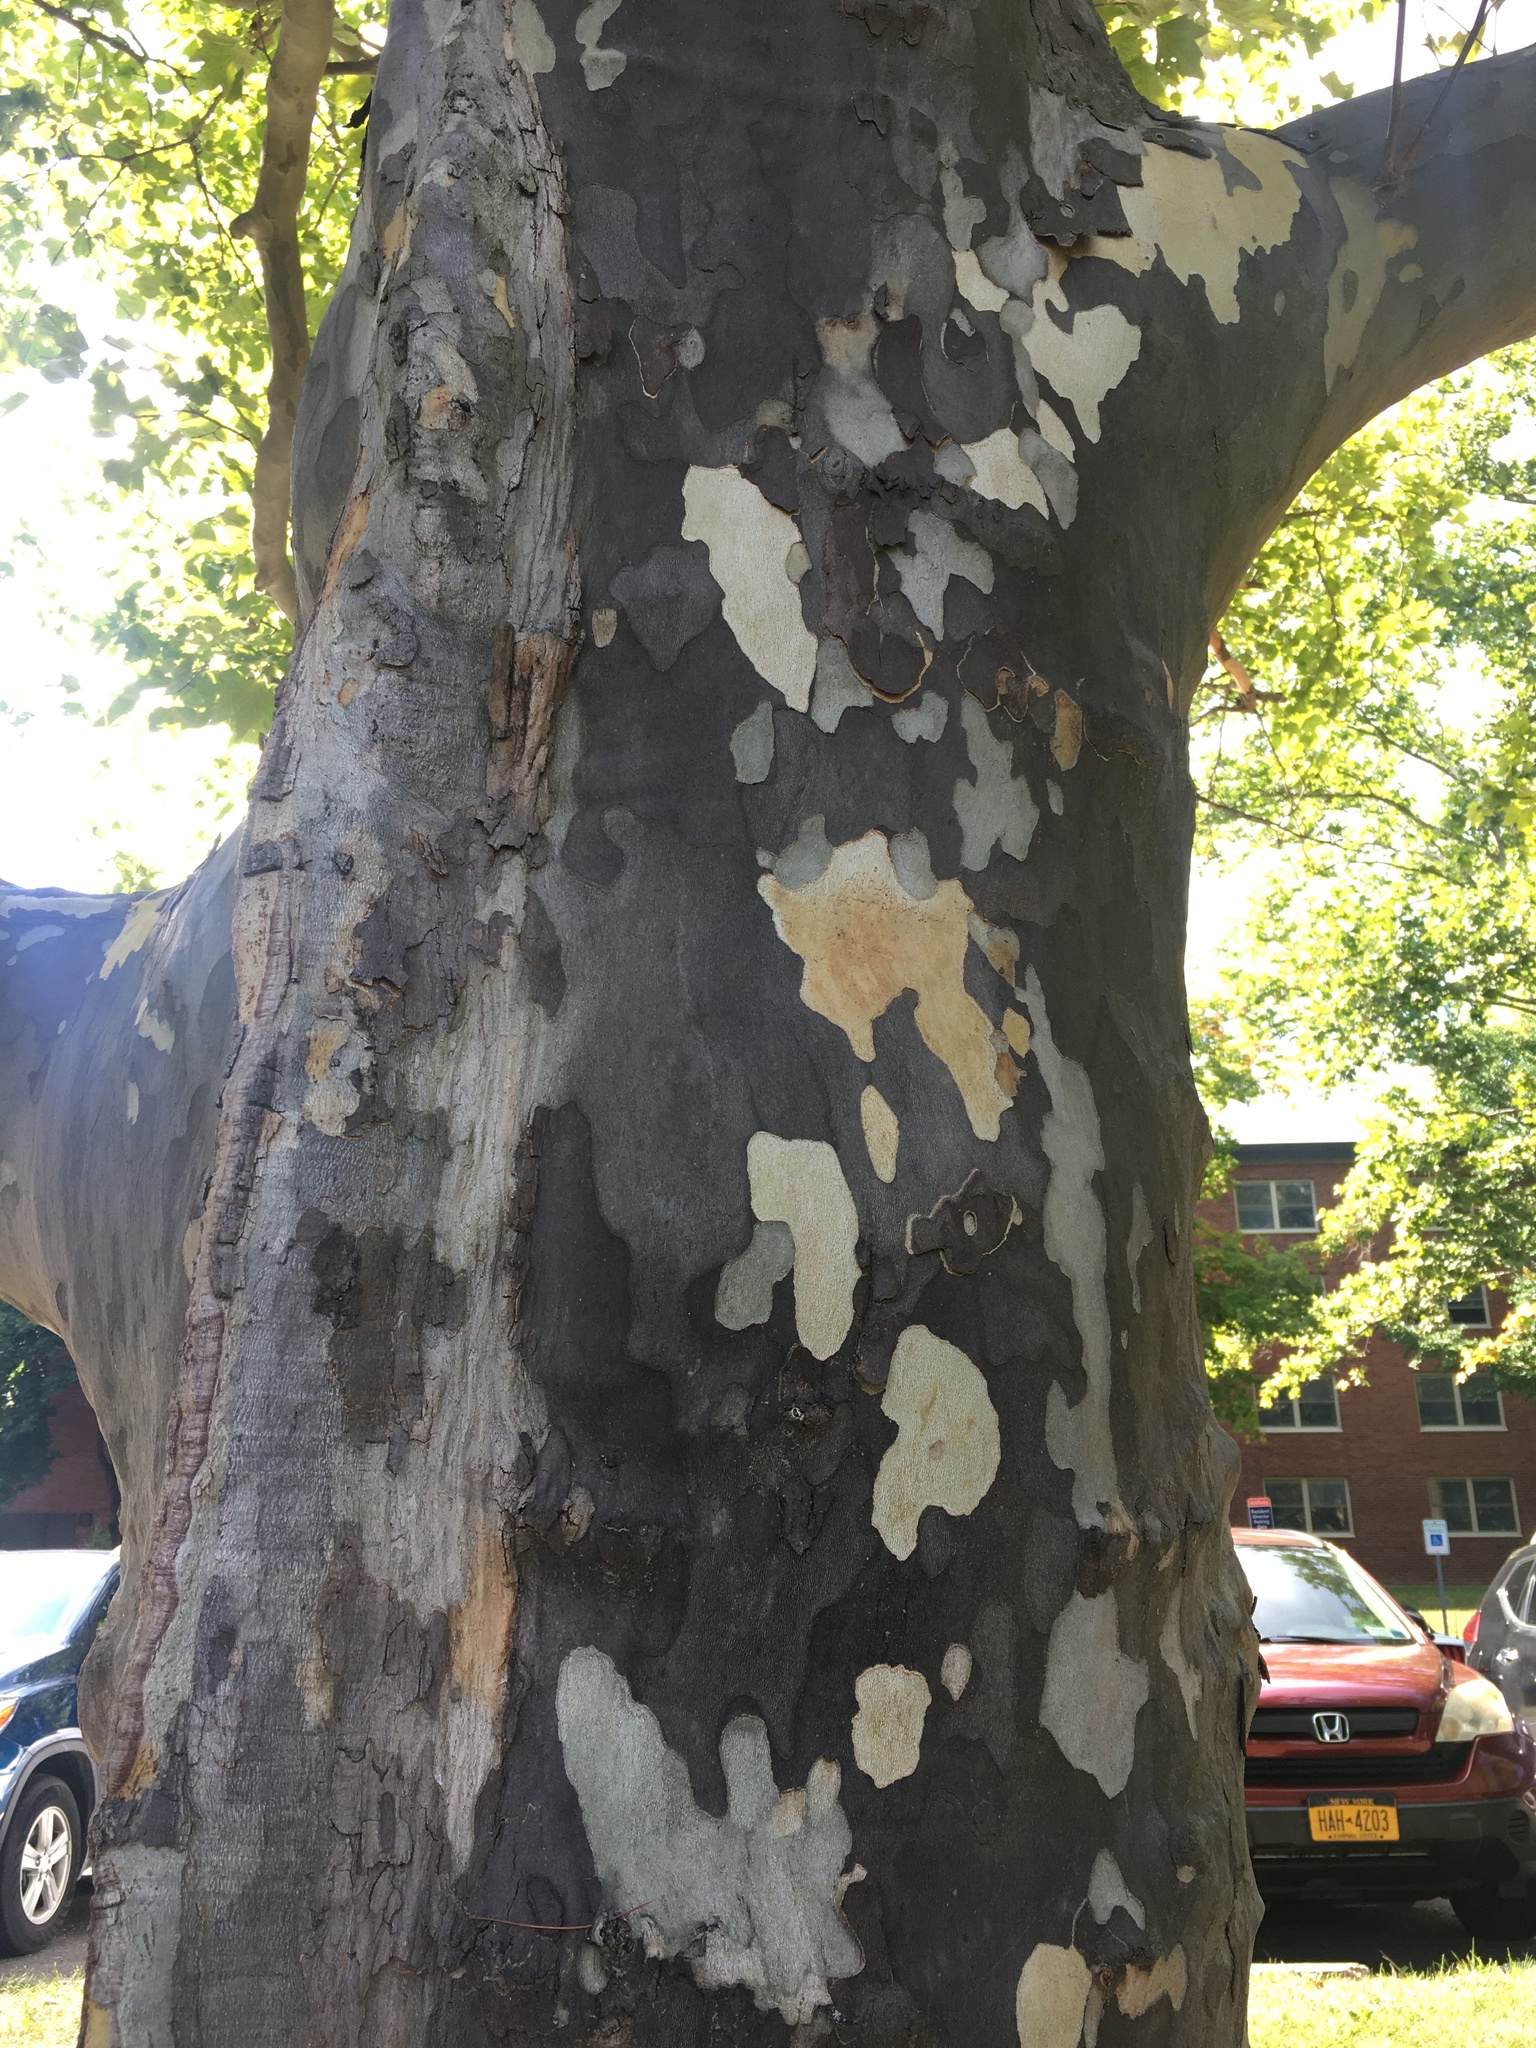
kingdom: Plantae
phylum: Tracheophyta
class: Magnoliopsida
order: Proteales
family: Platanaceae
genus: Platanus
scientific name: Platanus occidentalis
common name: American sycamore
